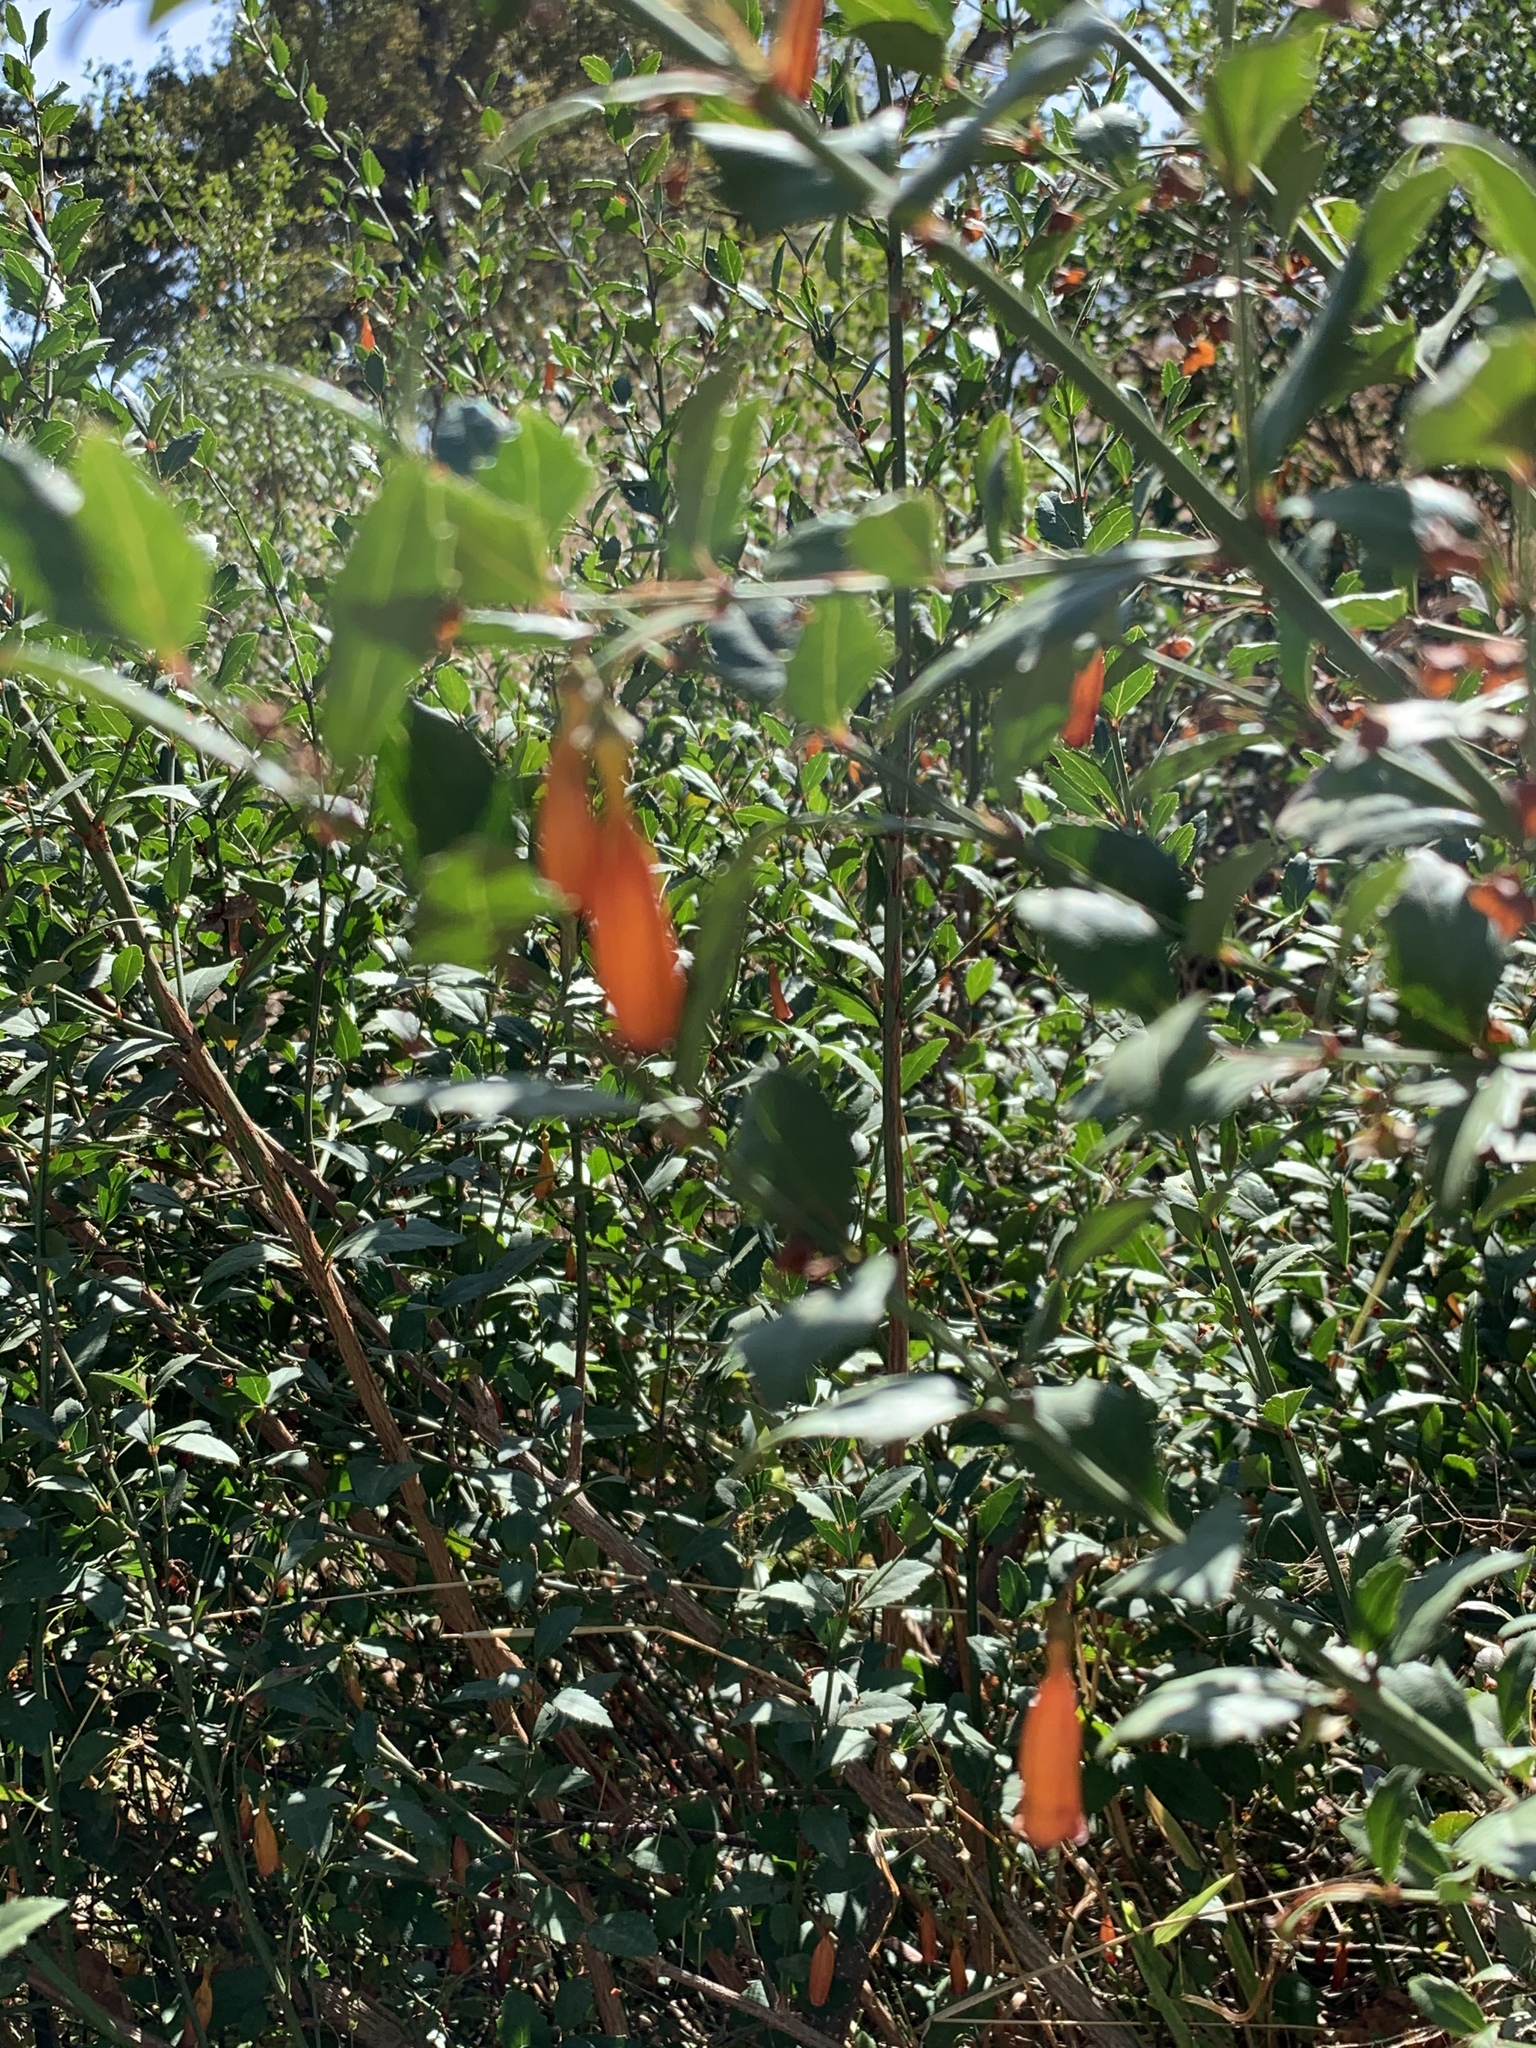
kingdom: Plantae
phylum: Tracheophyta
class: Magnoliopsida
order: Lamiales
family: Stilbaceae
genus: Halleria
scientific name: Halleria elliptica
